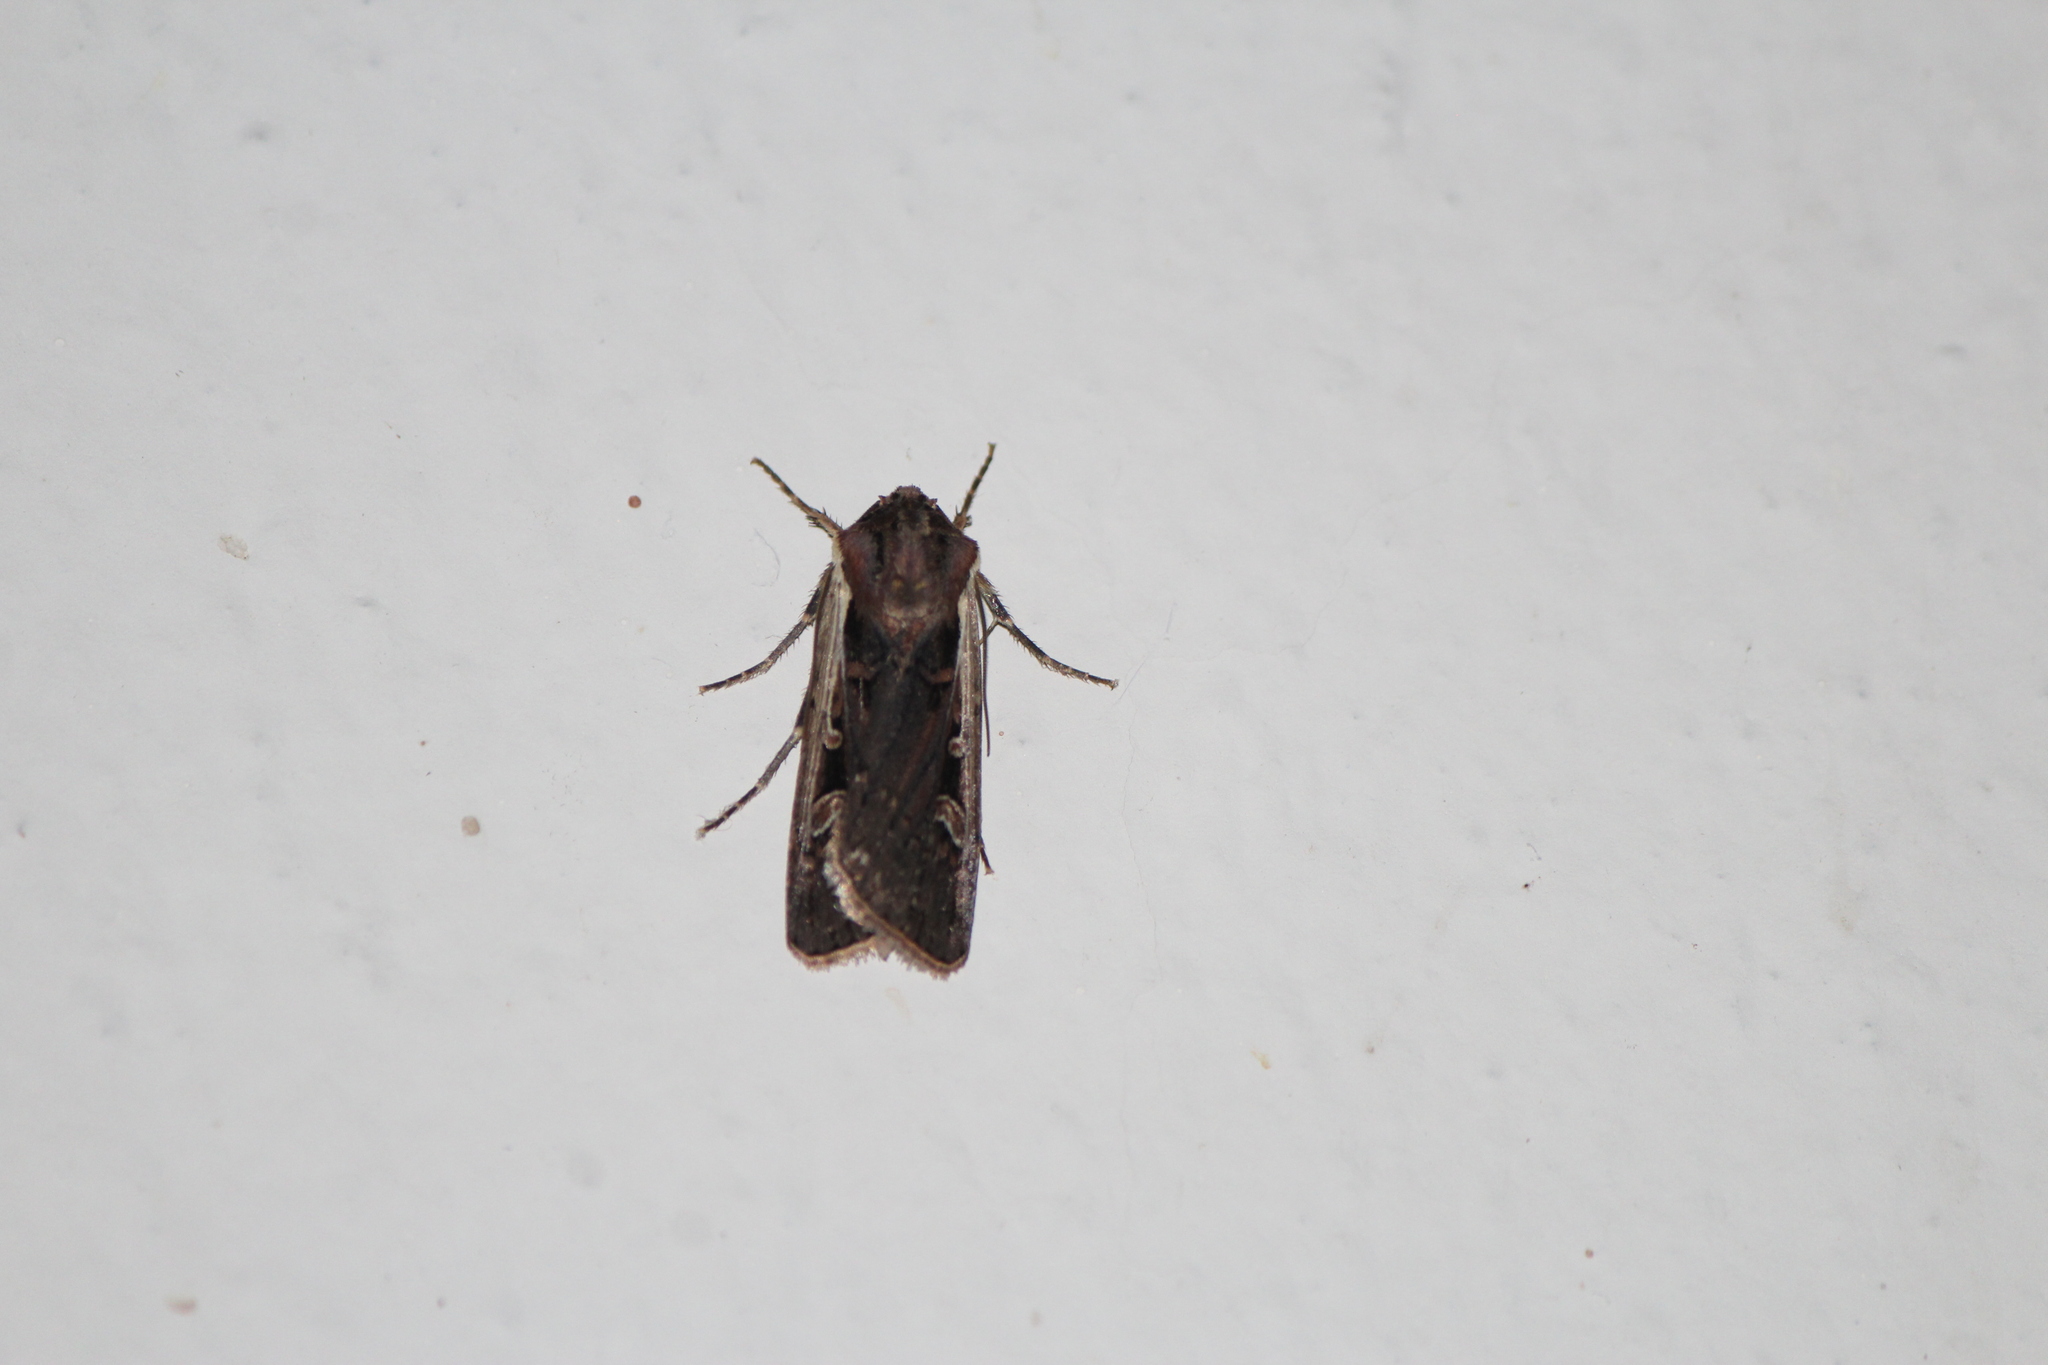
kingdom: Animalia
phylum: Arthropoda
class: Insecta
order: Lepidoptera
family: Noctuidae
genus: Striacosta
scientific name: Striacosta albicosta
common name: Western bean cutworm moth
